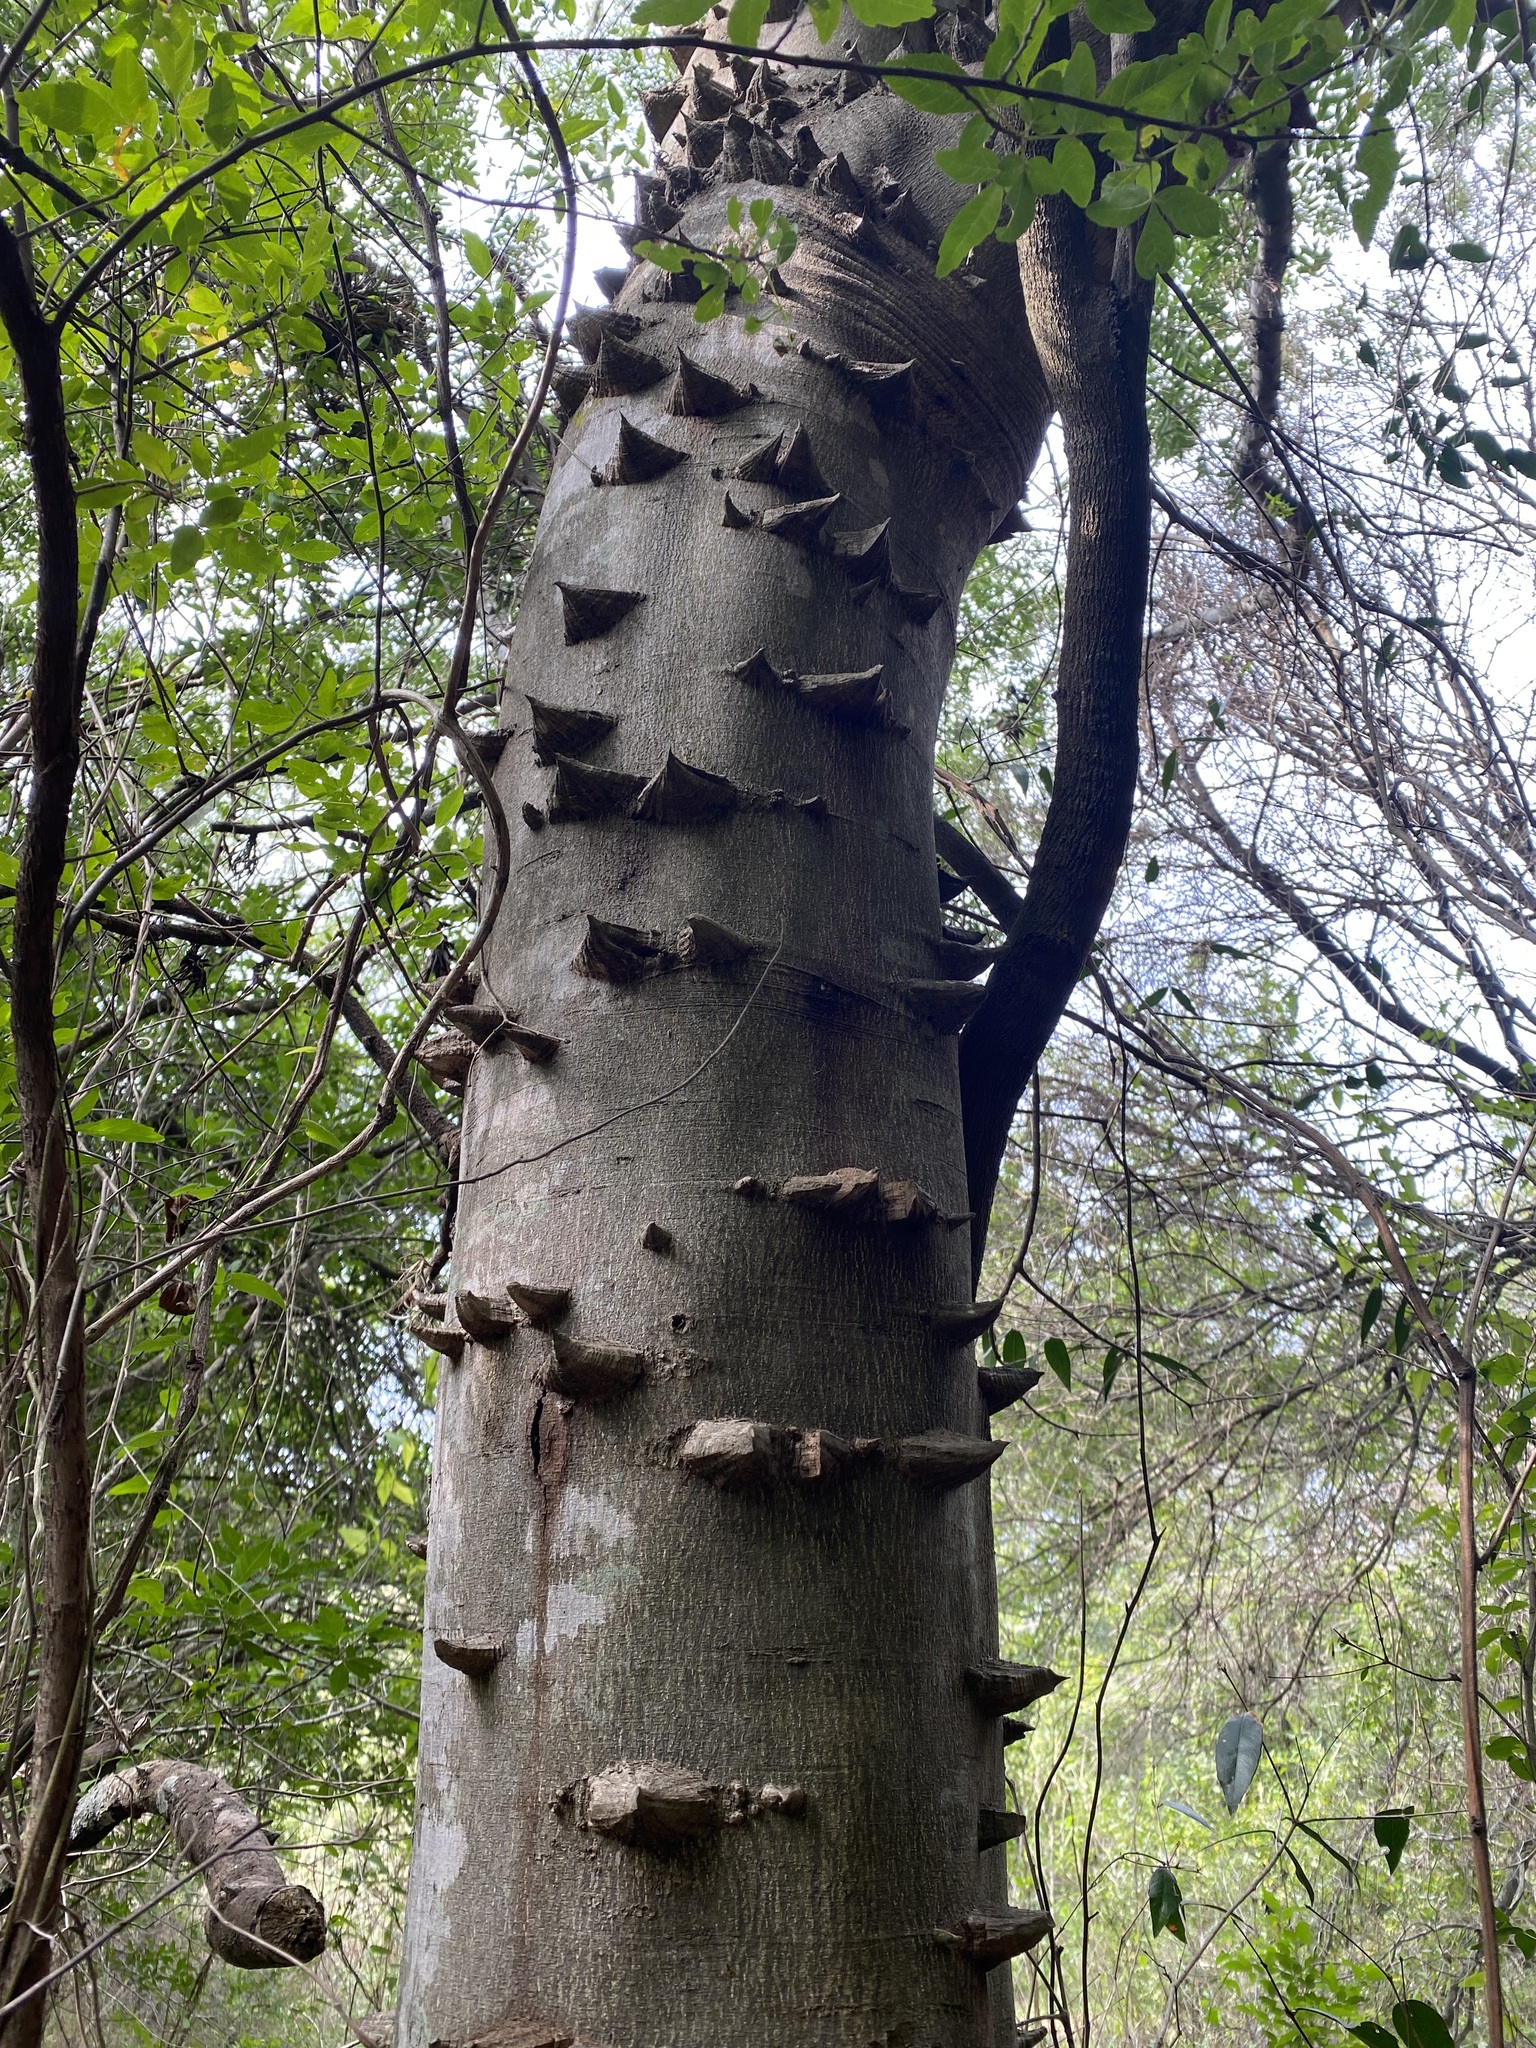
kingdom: Plantae
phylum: Tracheophyta
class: Magnoliopsida
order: Sapindales
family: Rutaceae
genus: Zanthoxylum
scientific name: Zanthoxylum rhoifolium
